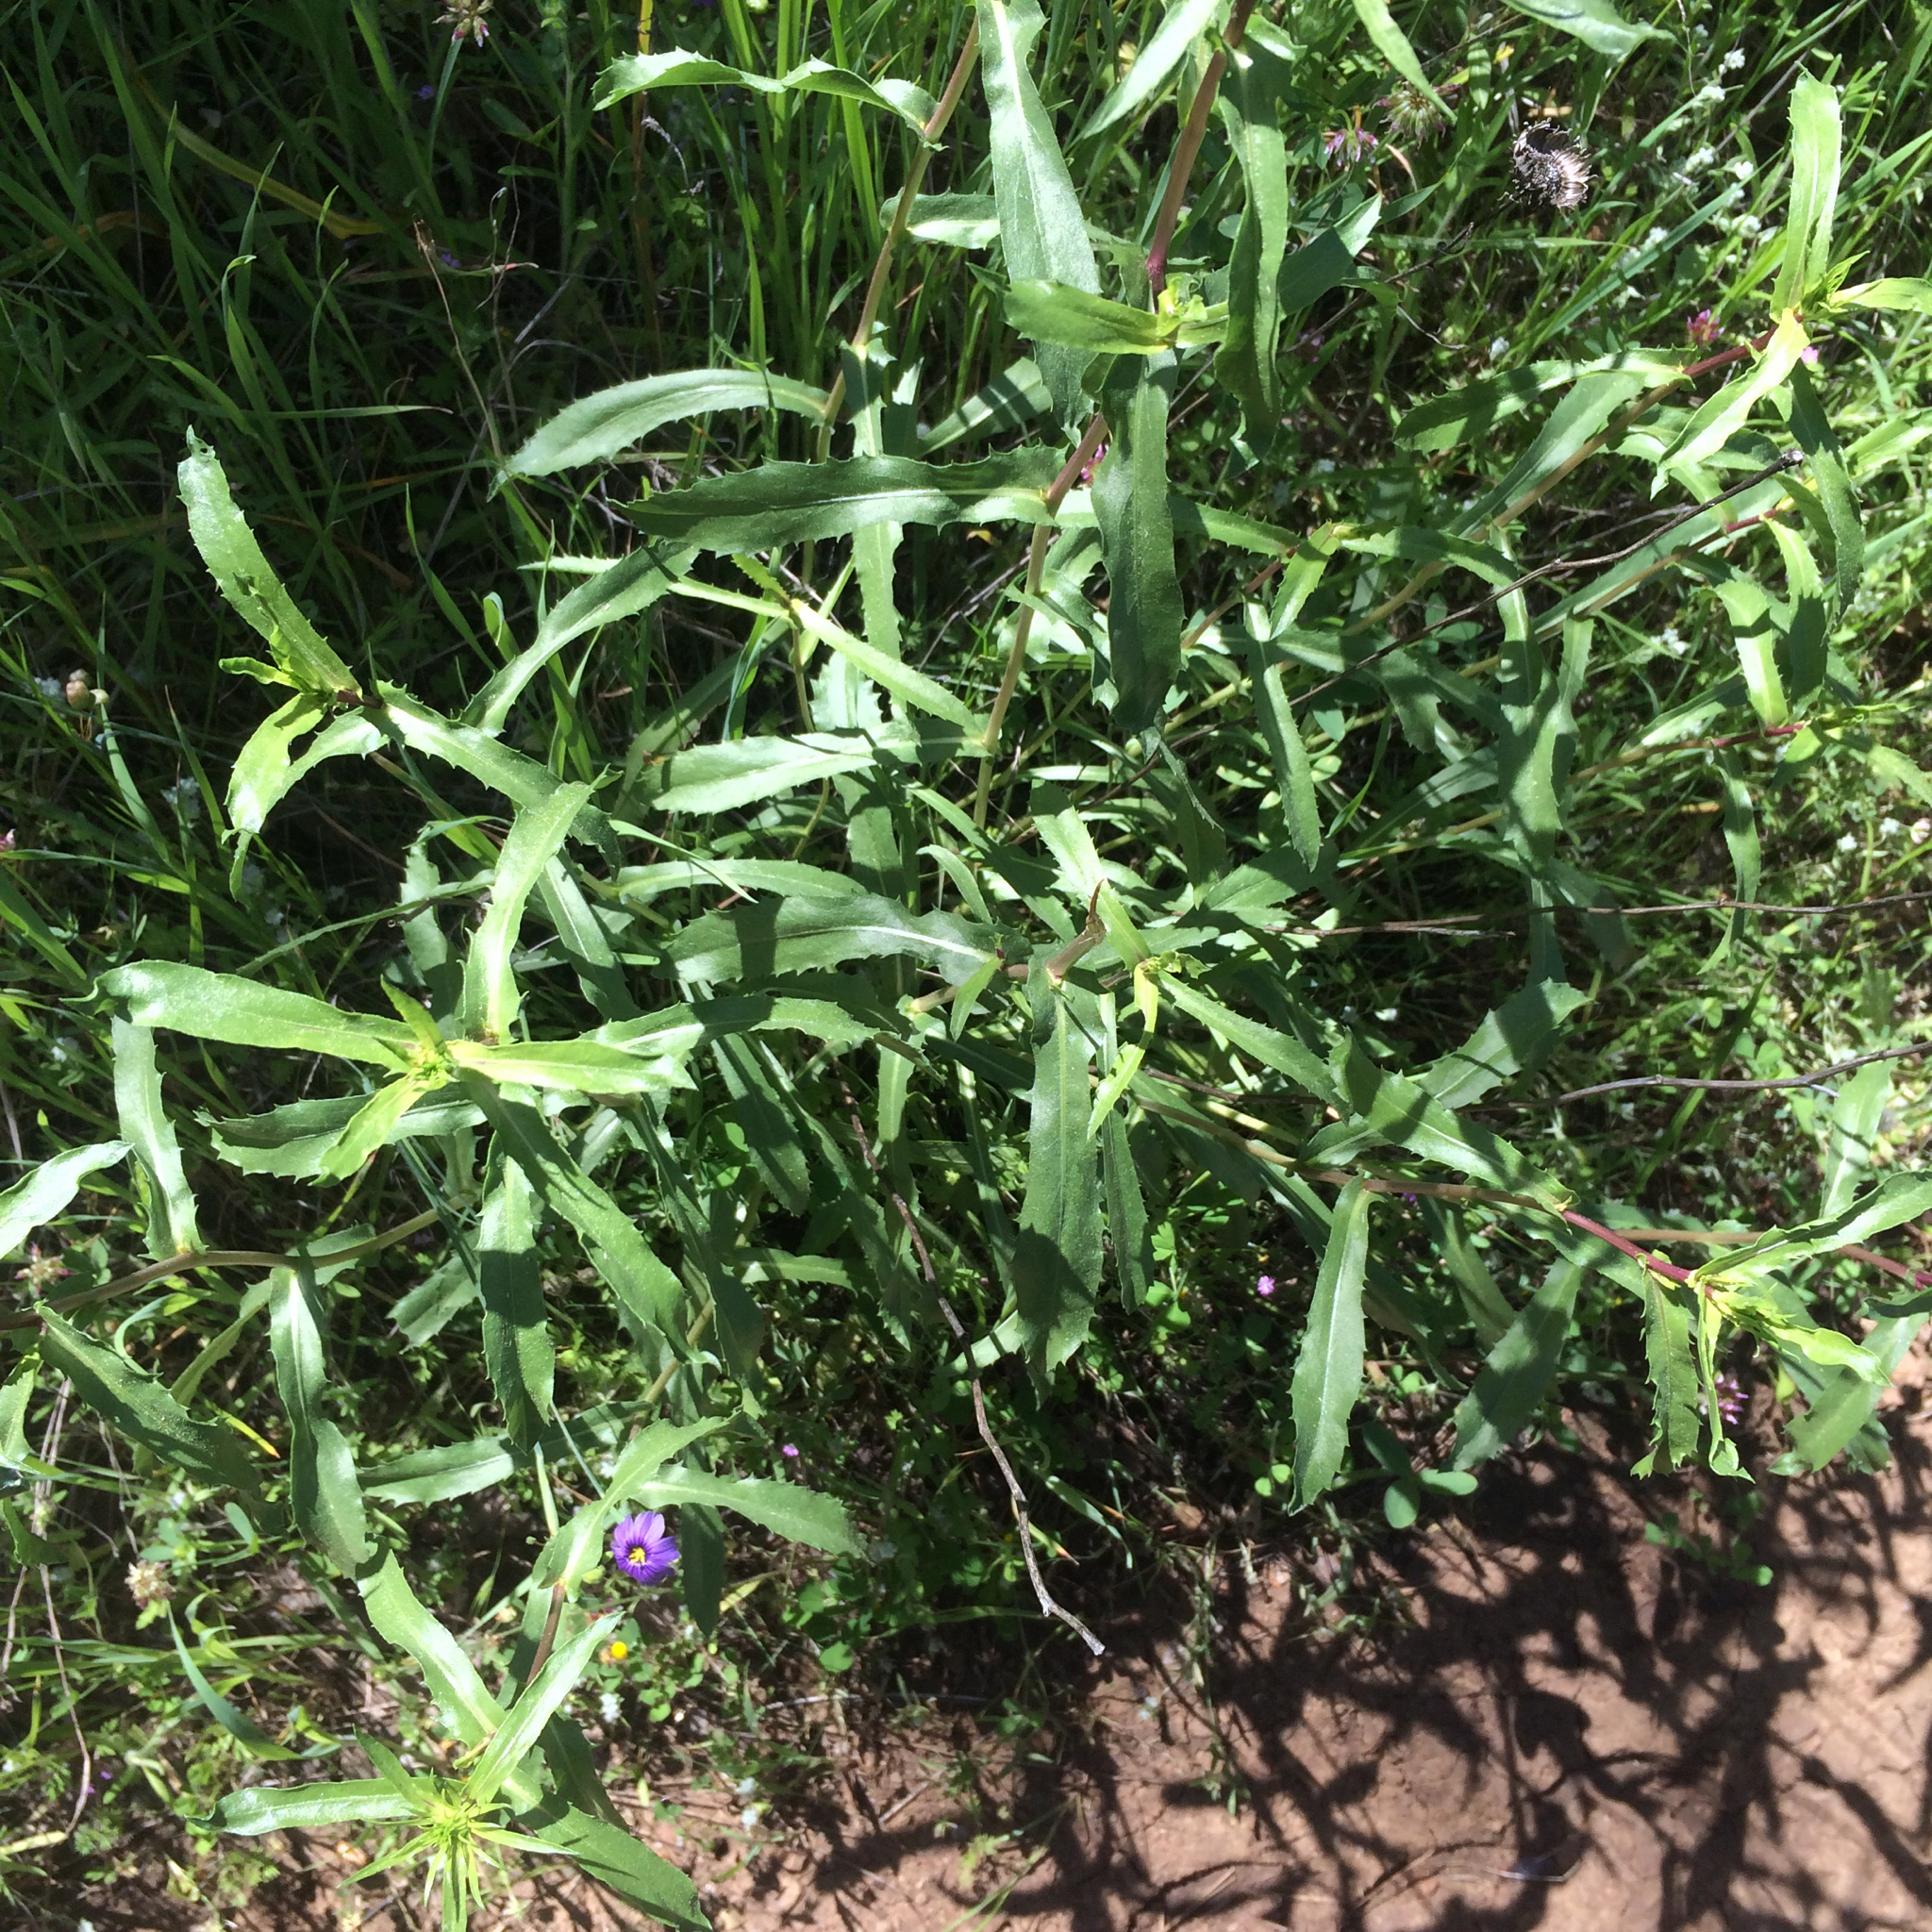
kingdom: Plantae
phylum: Tracheophyta
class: Magnoliopsida
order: Asterales
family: Asteraceae
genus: Grindelia
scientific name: Grindelia hirsutula
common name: Hairy gumweed
